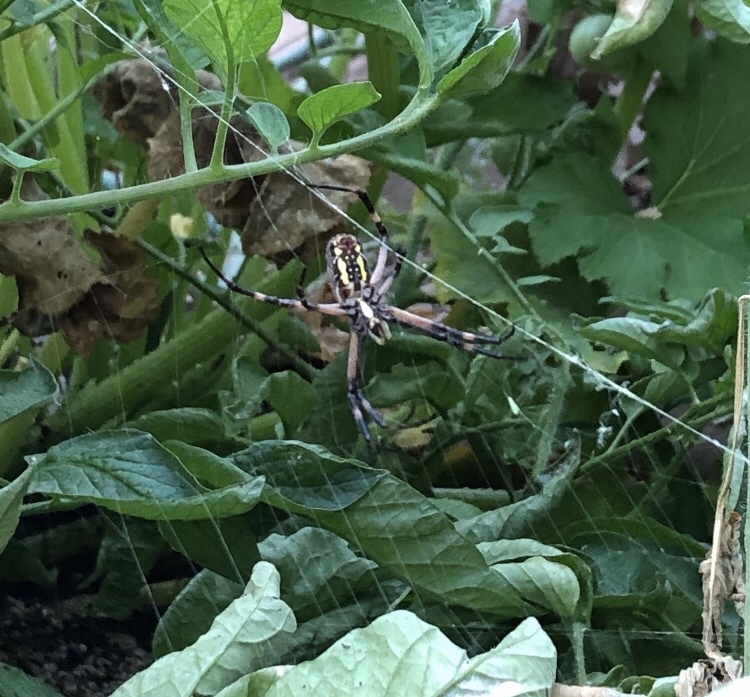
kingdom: Animalia
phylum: Arthropoda
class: Arachnida
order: Araneae
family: Araneidae
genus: Argiope
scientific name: Argiope aurantia
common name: Orb weavers
